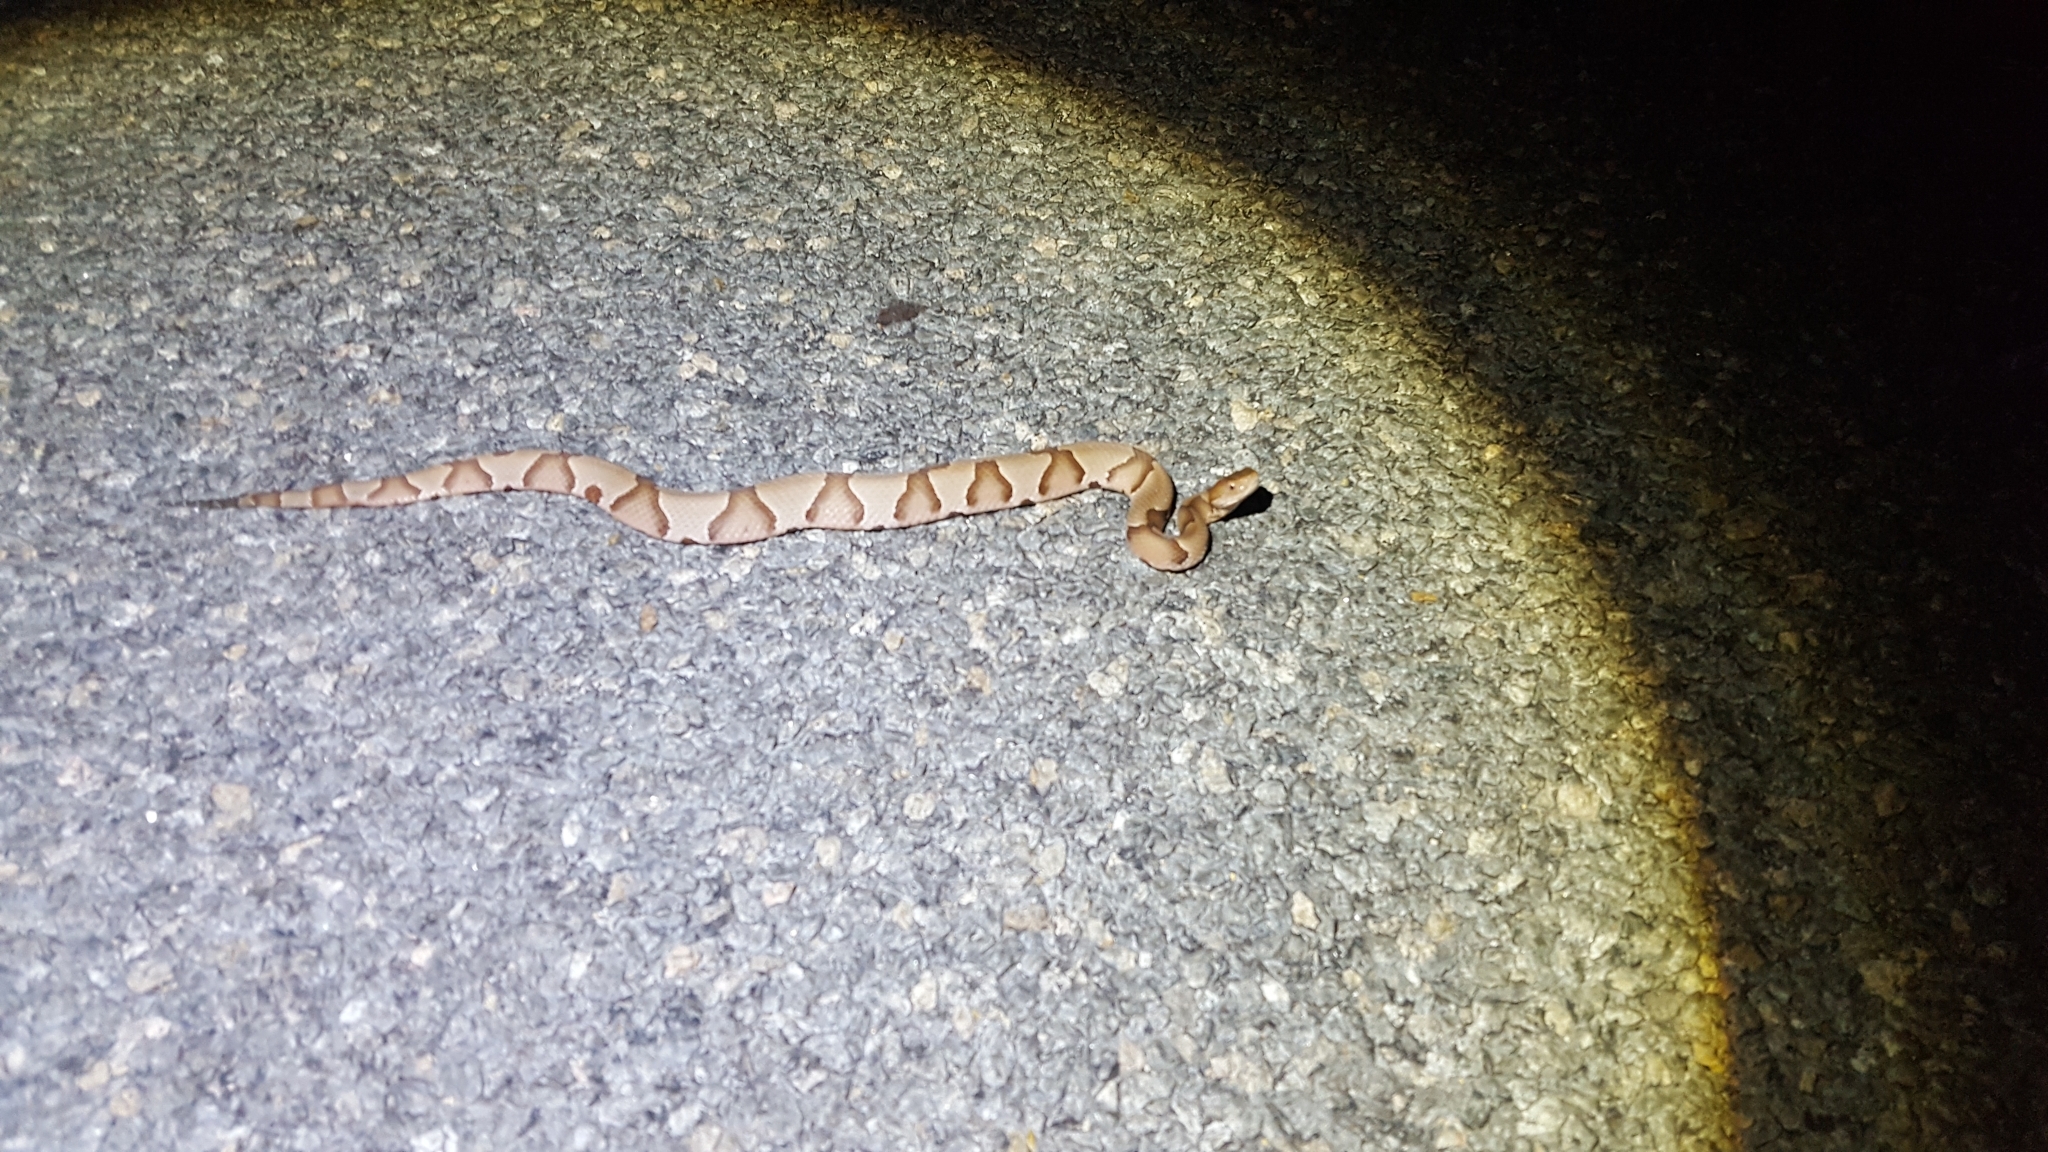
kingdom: Animalia
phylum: Chordata
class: Squamata
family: Viperidae
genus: Agkistrodon
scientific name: Agkistrodon contortrix
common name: Northern copperhead
